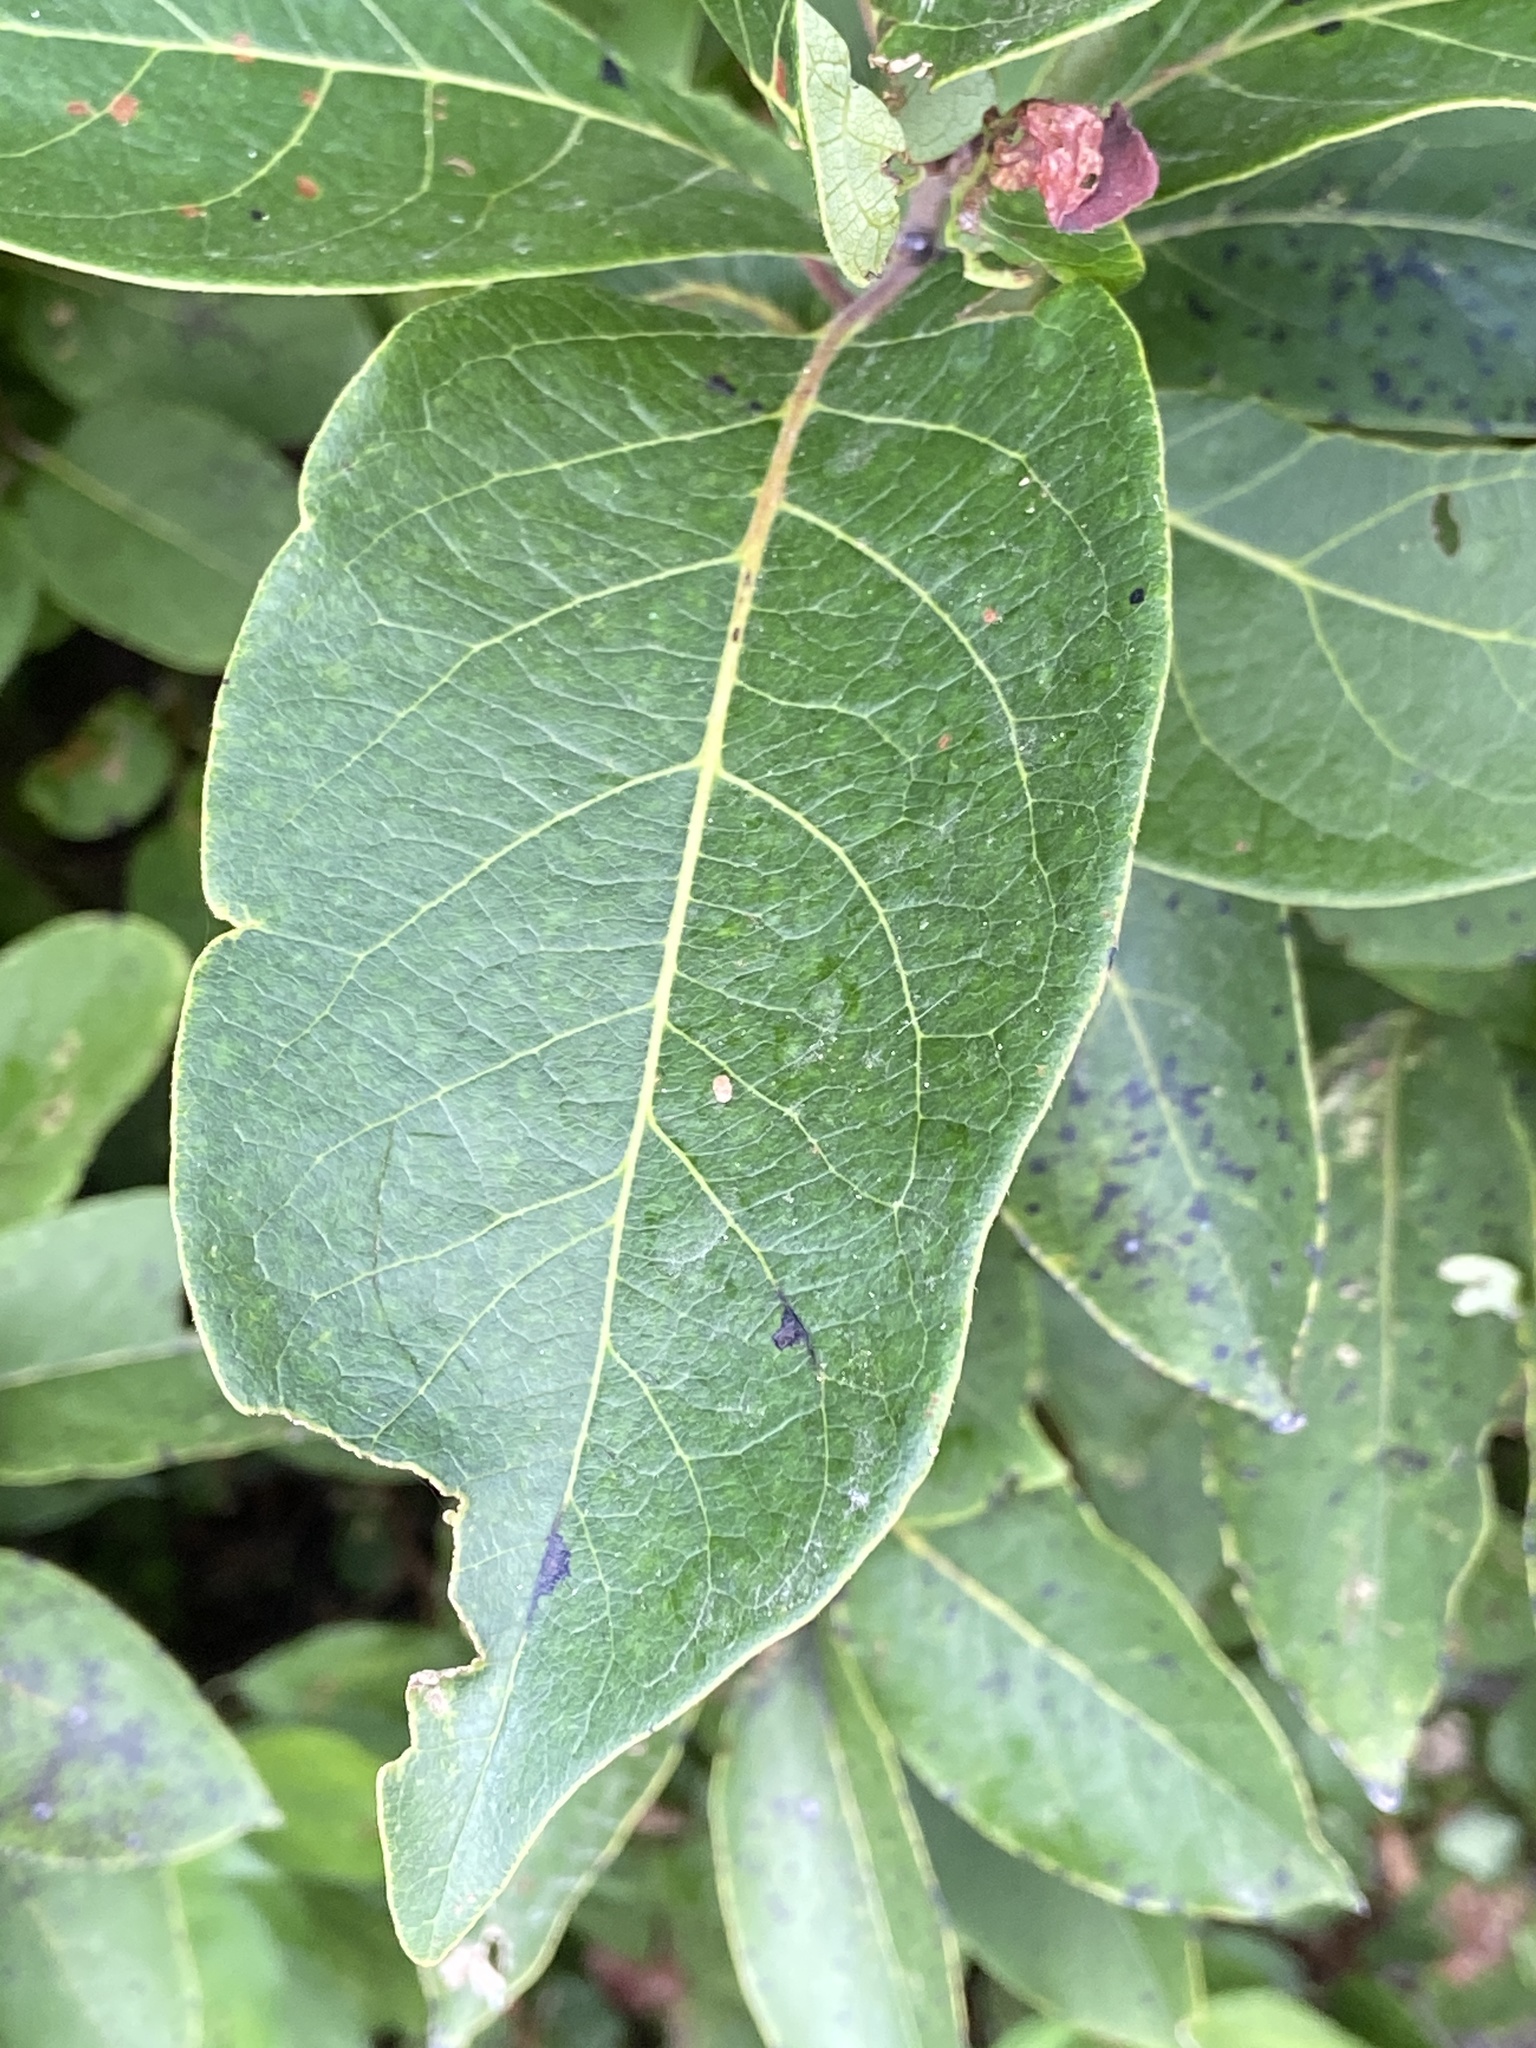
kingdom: Plantae
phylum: Tracheophyta
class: Magnoliopsida
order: Ericales
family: Ebenaceae
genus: Diospyros
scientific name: Diospyros virginiana
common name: Persimmon
